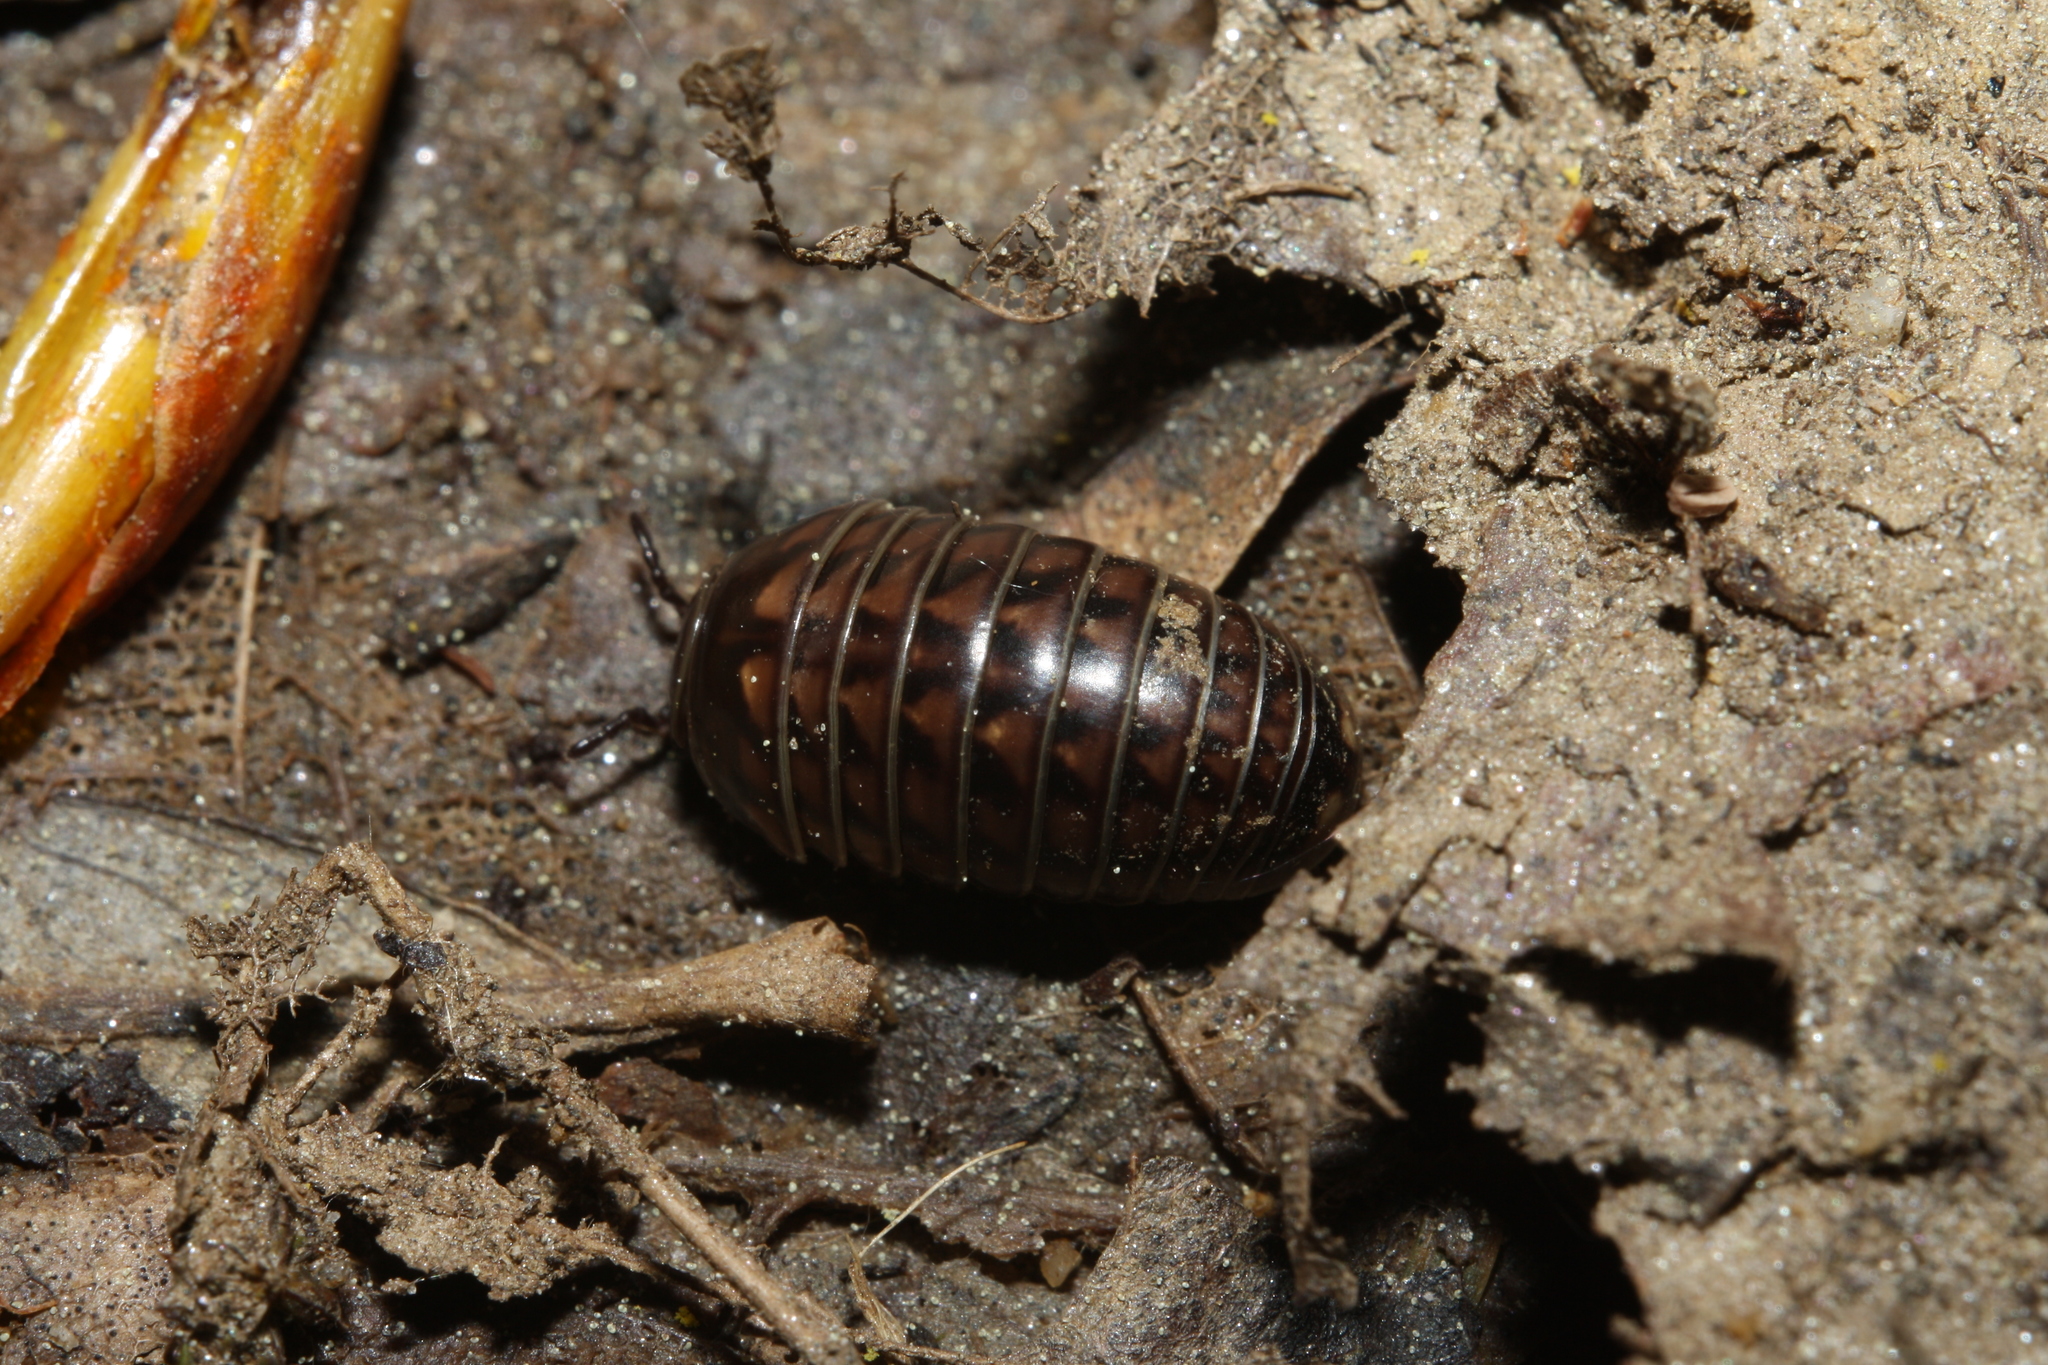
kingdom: Animalia
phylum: Arthropoda
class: Diplopoda
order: Glomerida
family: Glomeridae
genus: Glomeris
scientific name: Glomeris hexasticha
